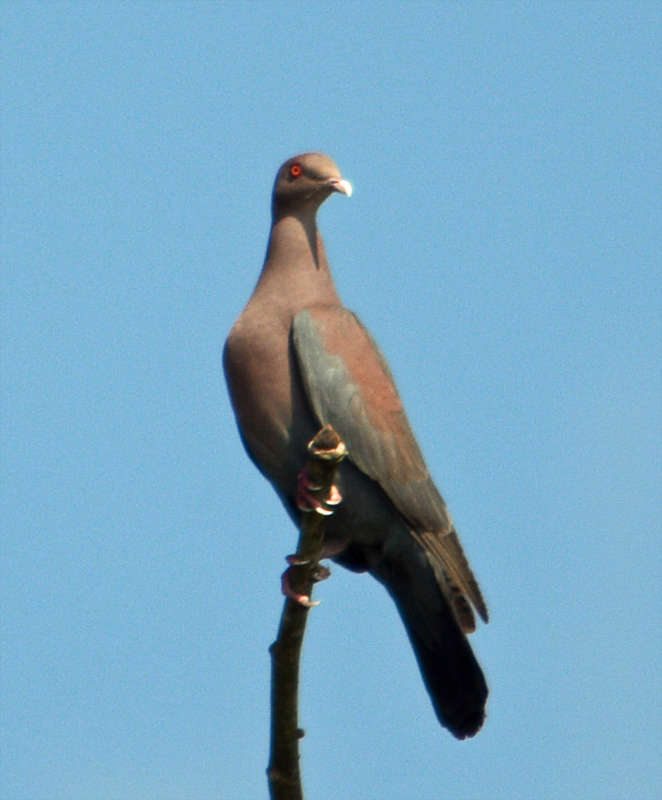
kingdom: Animalia
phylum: Chordata
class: Aves
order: Columbiformes
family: Columbidae
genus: Patagioenas
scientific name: Patagioenas flavirostris
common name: Red-billed pigeon
